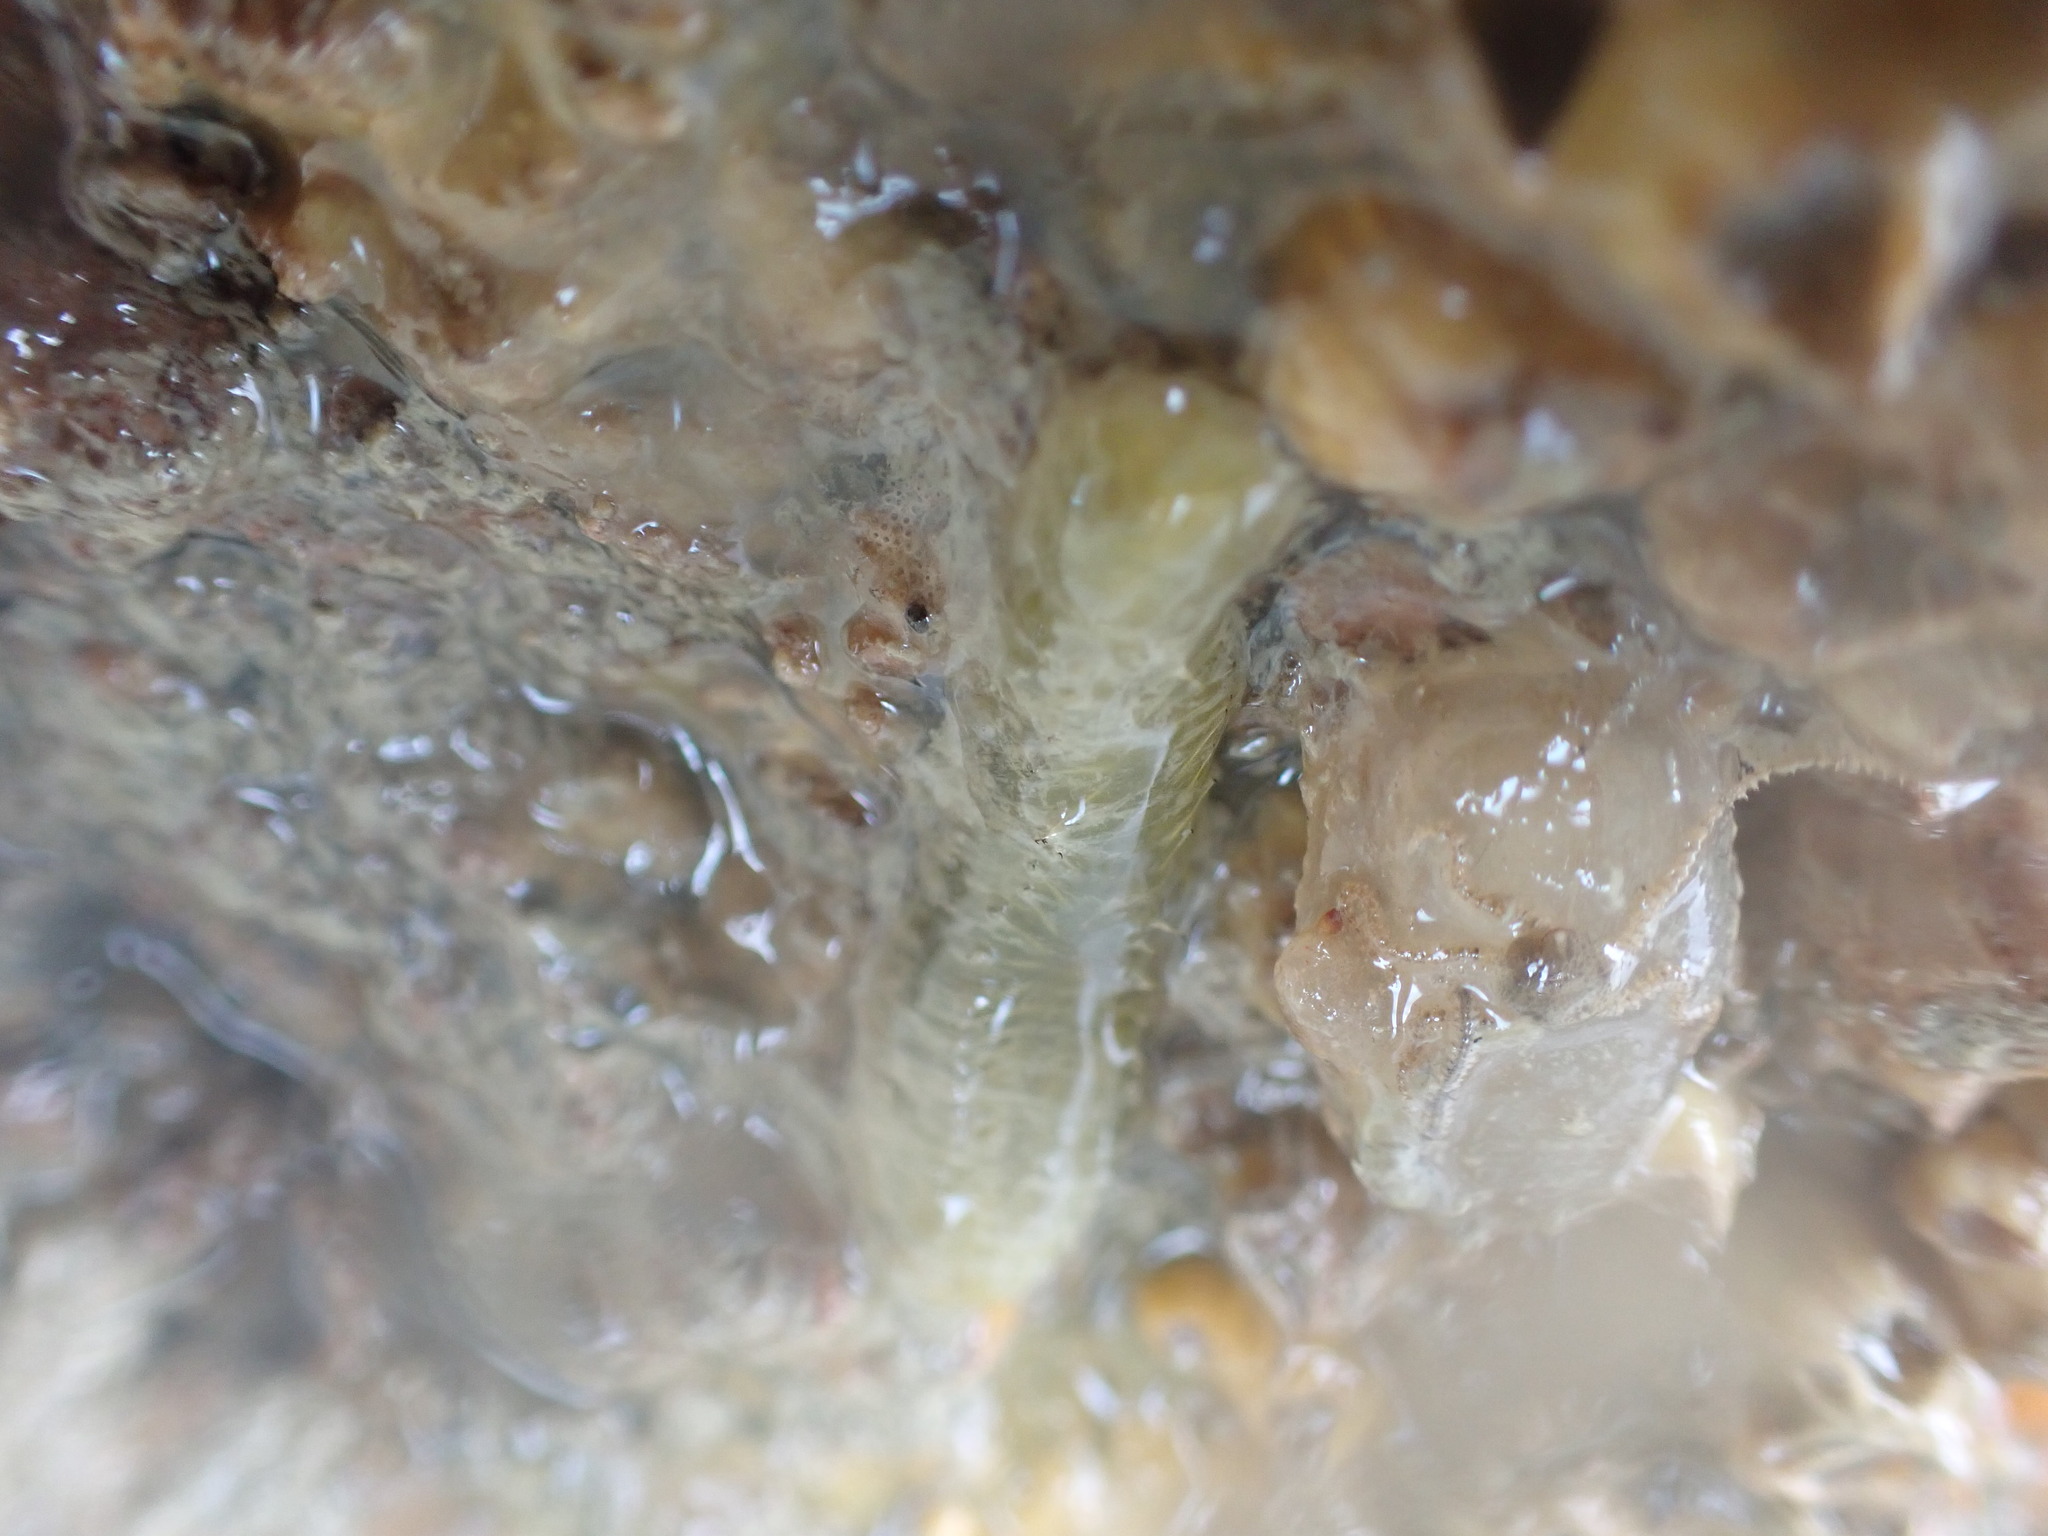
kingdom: Animalia
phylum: Annelida
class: Polychaeta
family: Flabelligeridae
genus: Flabelligera
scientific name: Flabelligera bicolor
